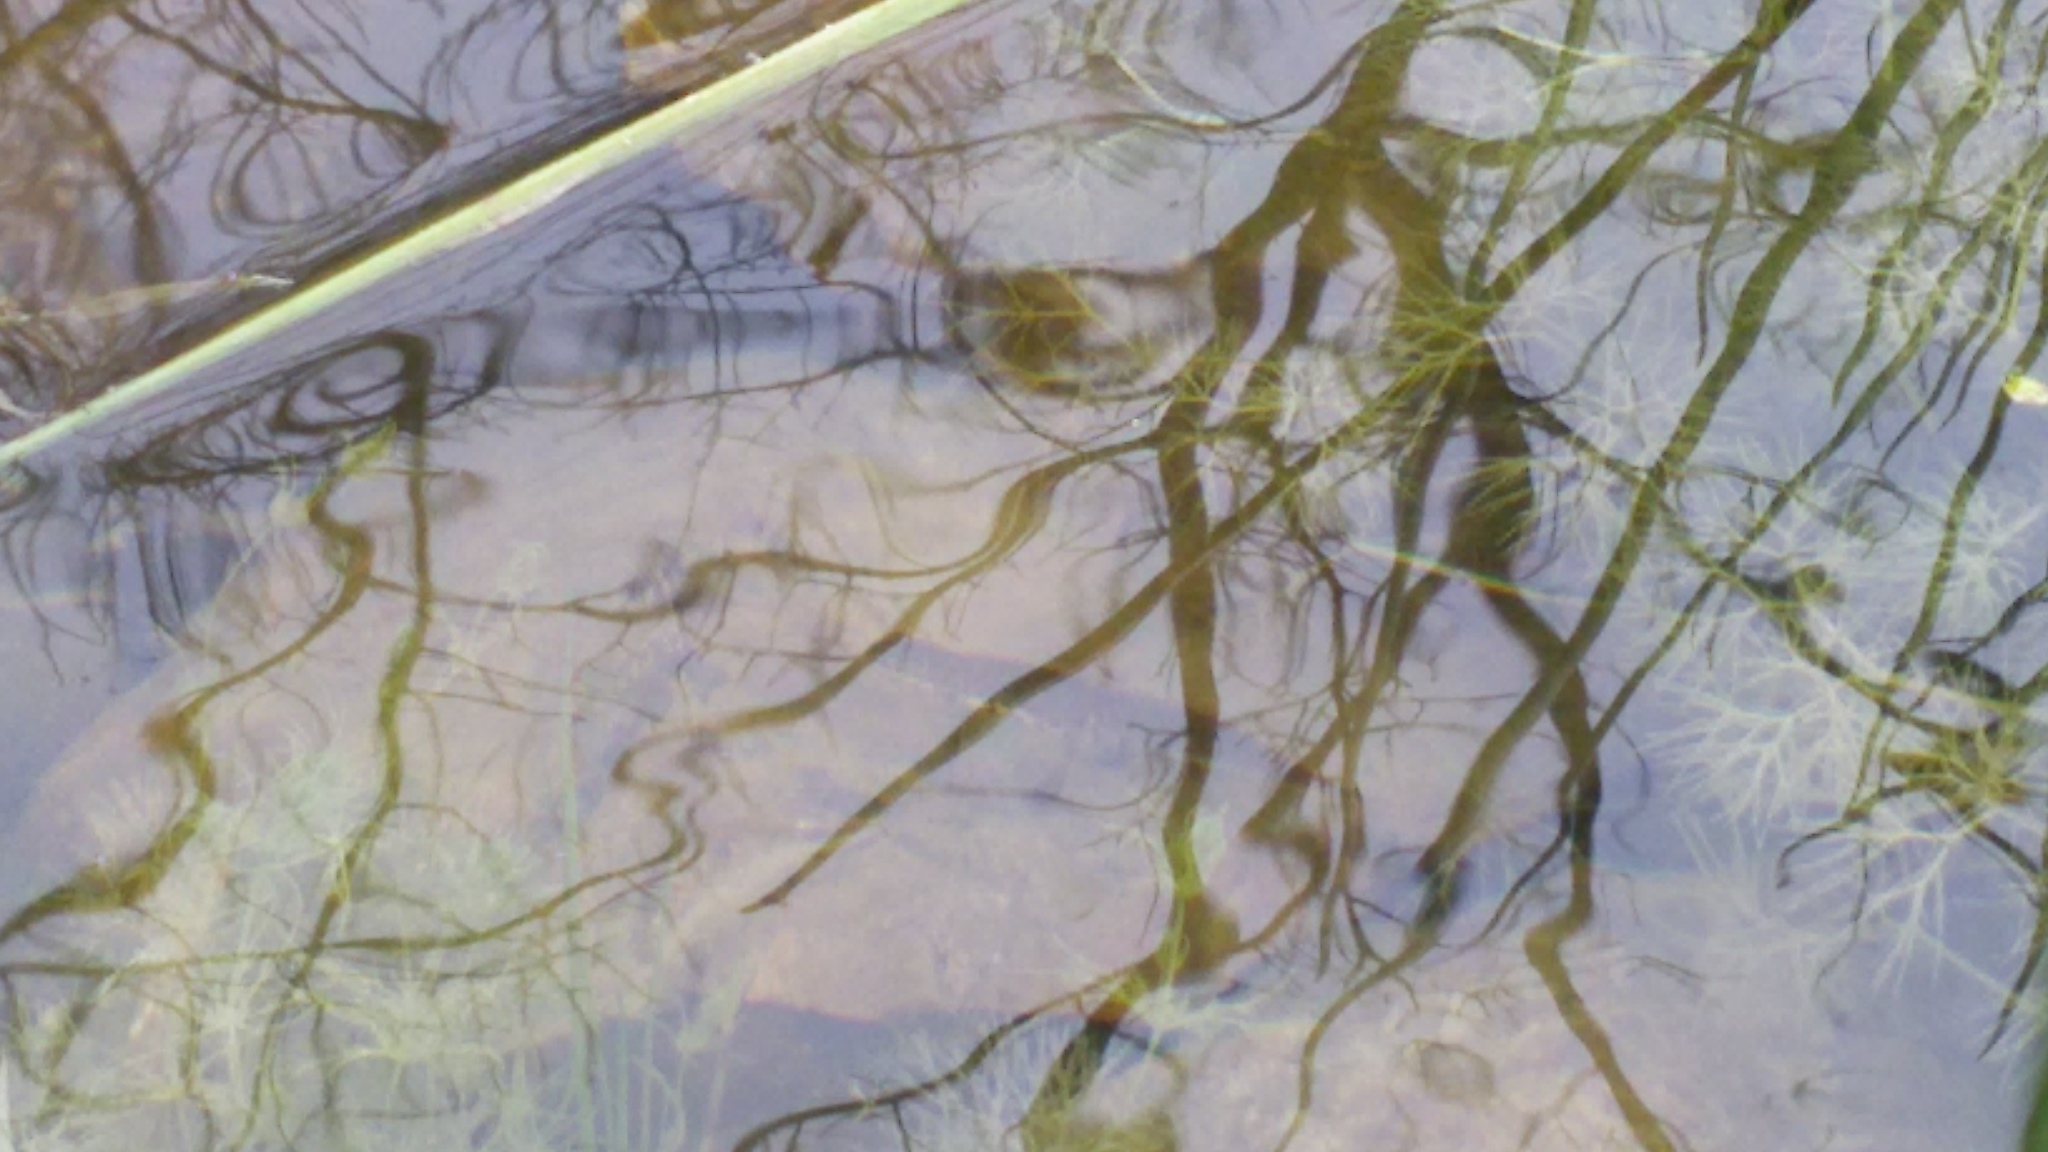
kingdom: Animalia
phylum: Chordata
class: Amphibia
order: Caudata
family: Salamandridae
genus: Lissotriton
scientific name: Lissotriton vulgaris
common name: Smooth newt
